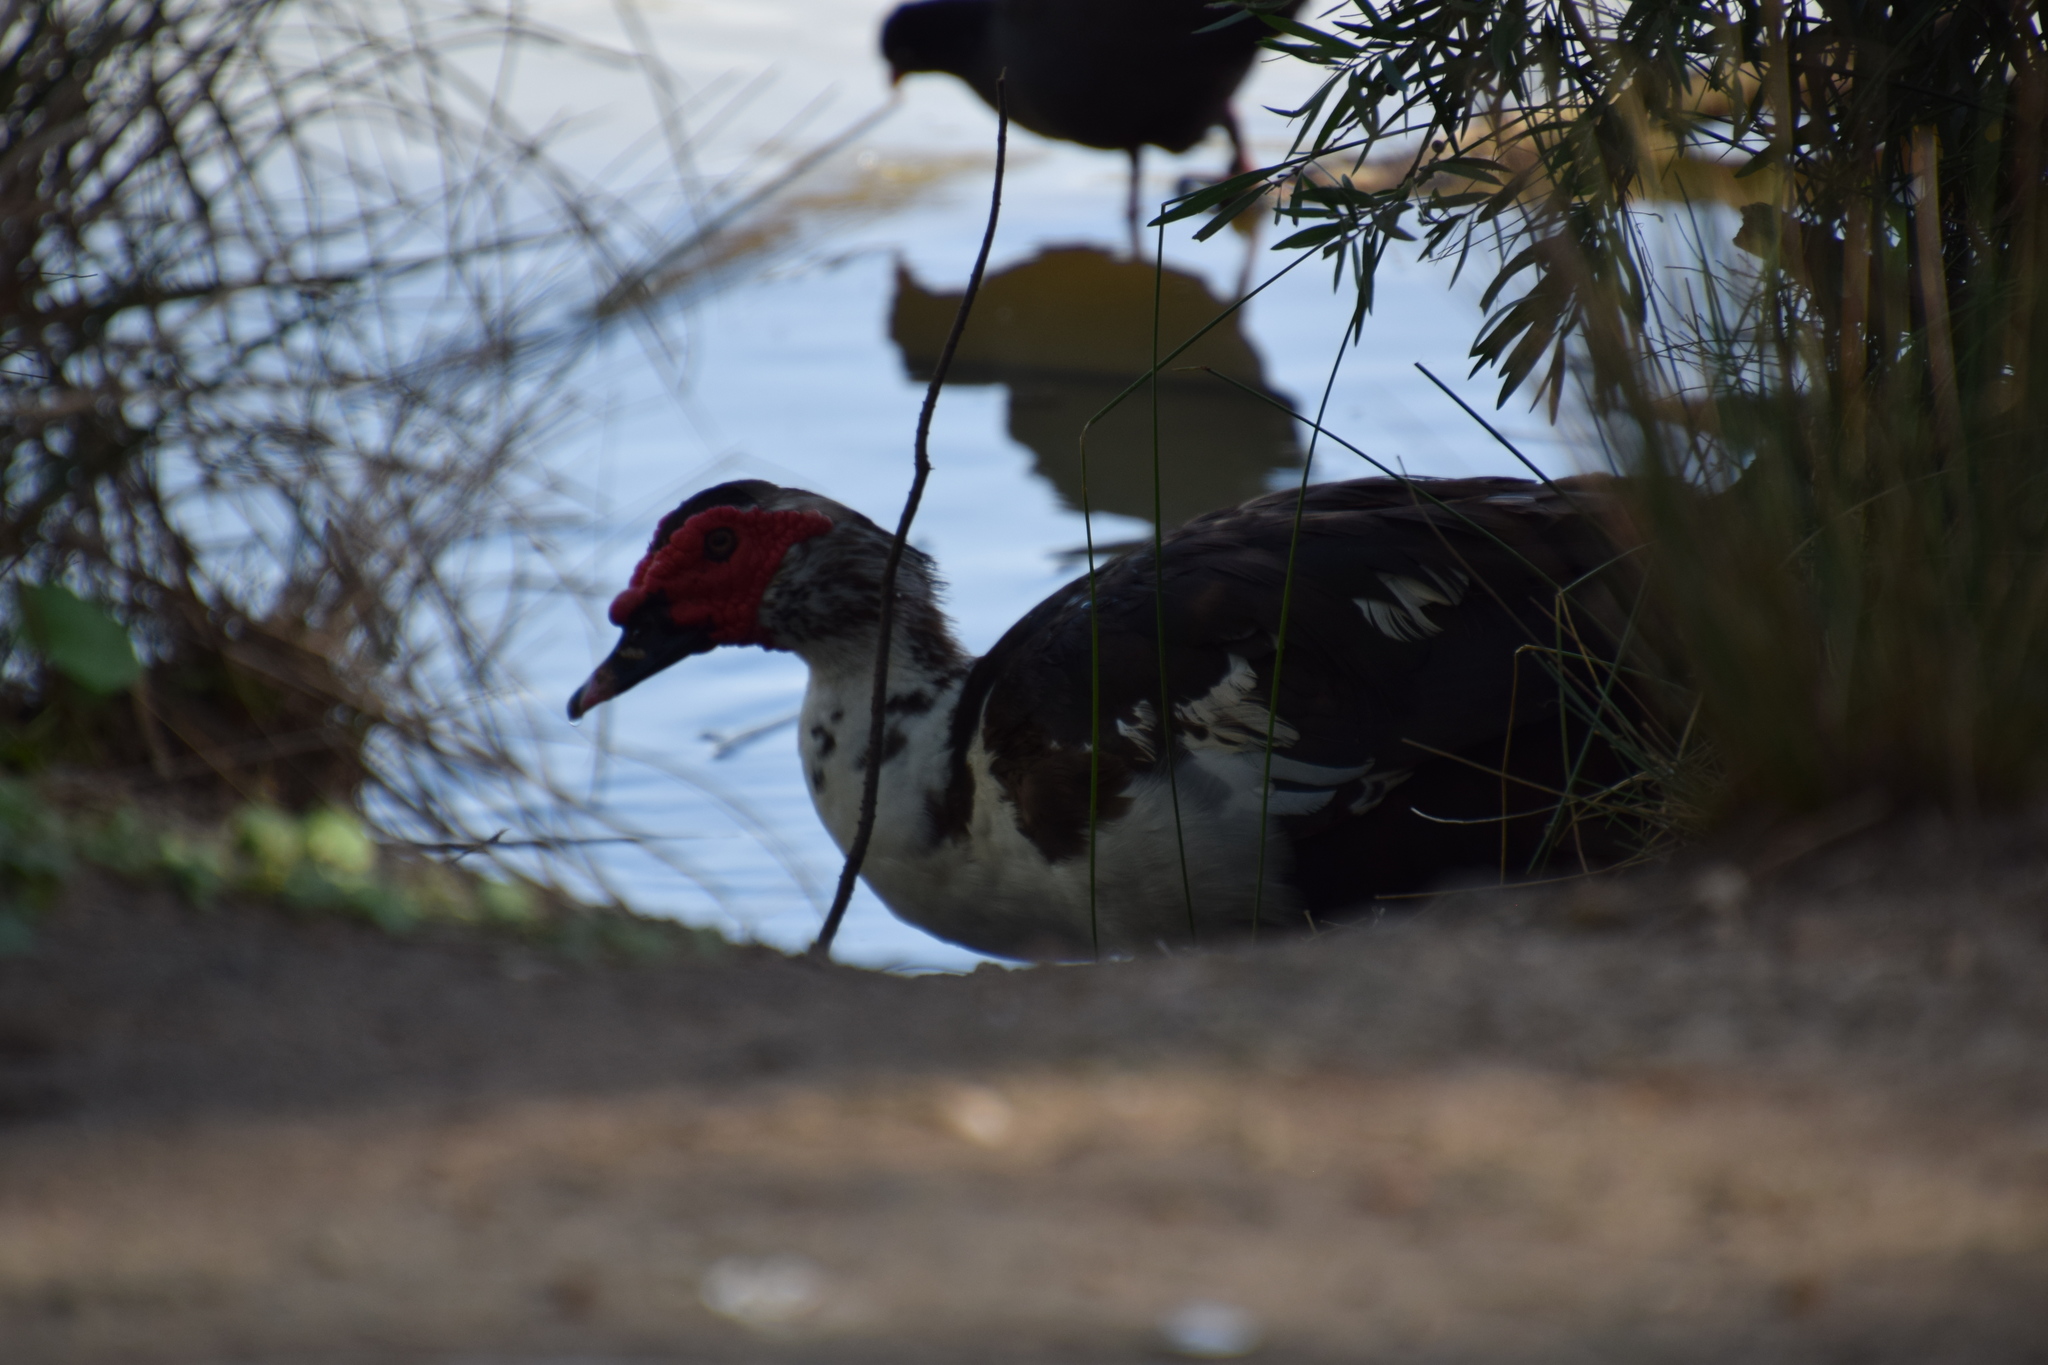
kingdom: Animalia
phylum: Chordata
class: Aves
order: Anseriformes
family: Anatidae
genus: Cairina
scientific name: Cairina moschata
